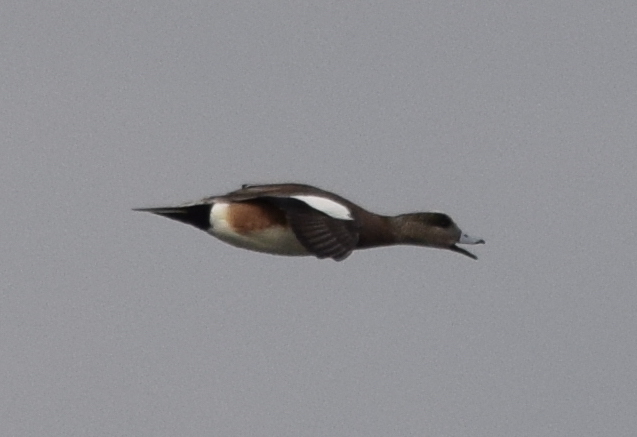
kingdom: Animalia
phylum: Chordata
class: Aves
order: Anseriformes
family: Anatidae
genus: Mareca
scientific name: Mareca americana
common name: American wigeon
